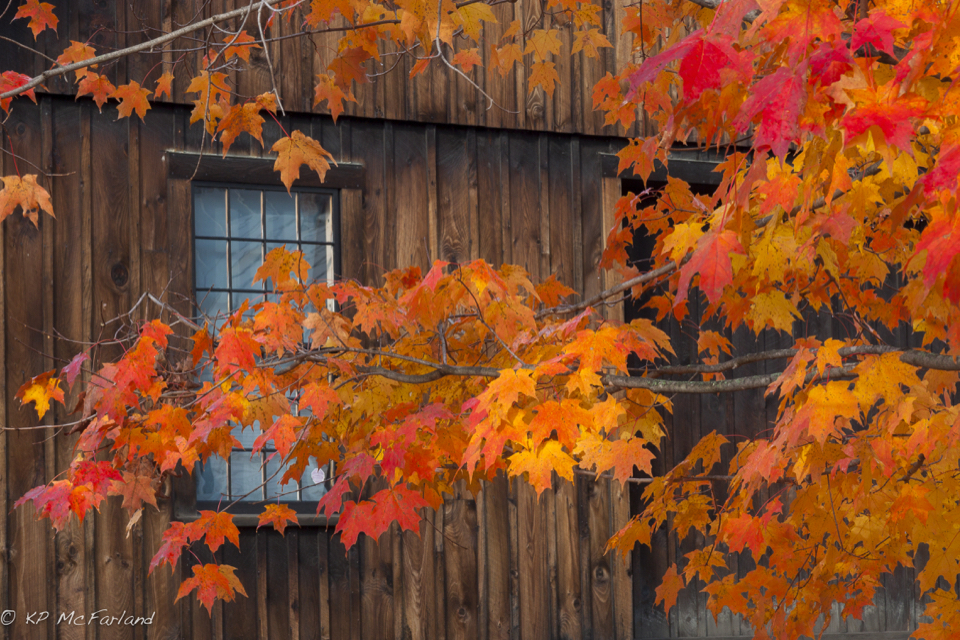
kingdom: Plantae
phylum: Tracheophyta
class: Magnoliopsida
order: Sapindales
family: Sapindaceae
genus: Acer
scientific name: Acer saccharum
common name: Sugar maple
